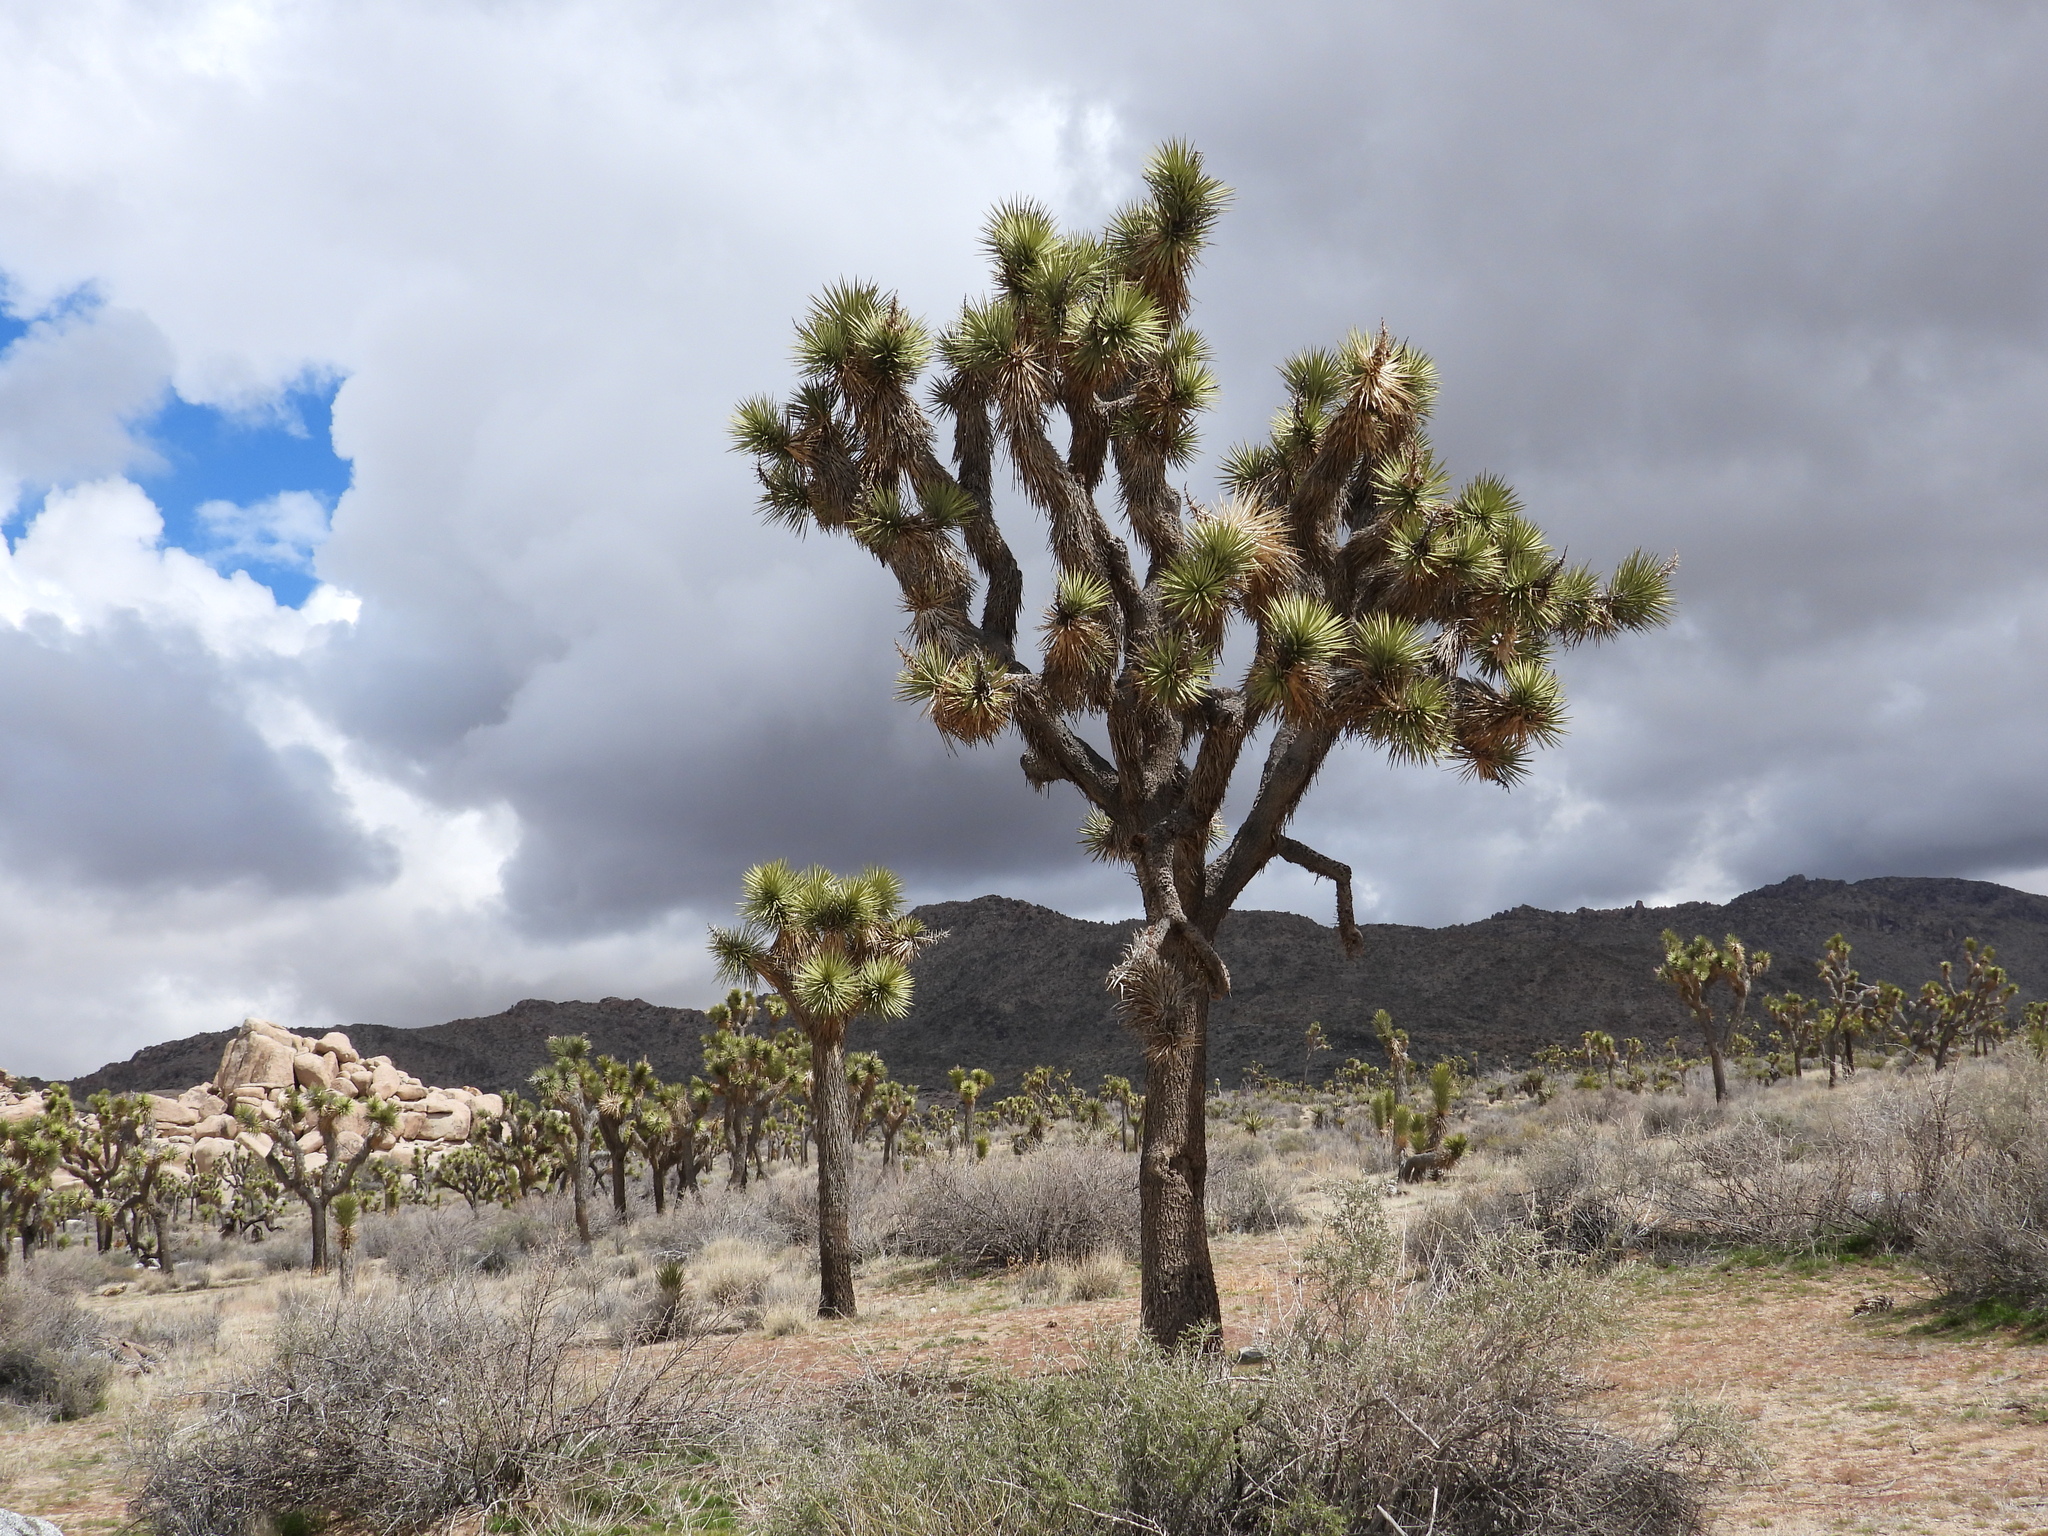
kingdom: Plantae
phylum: Tracheophyta
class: Liliopsida
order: Asparagales
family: Asparagaceae
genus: Yucca
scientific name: Yucca brevifolia
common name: Joshua tree
